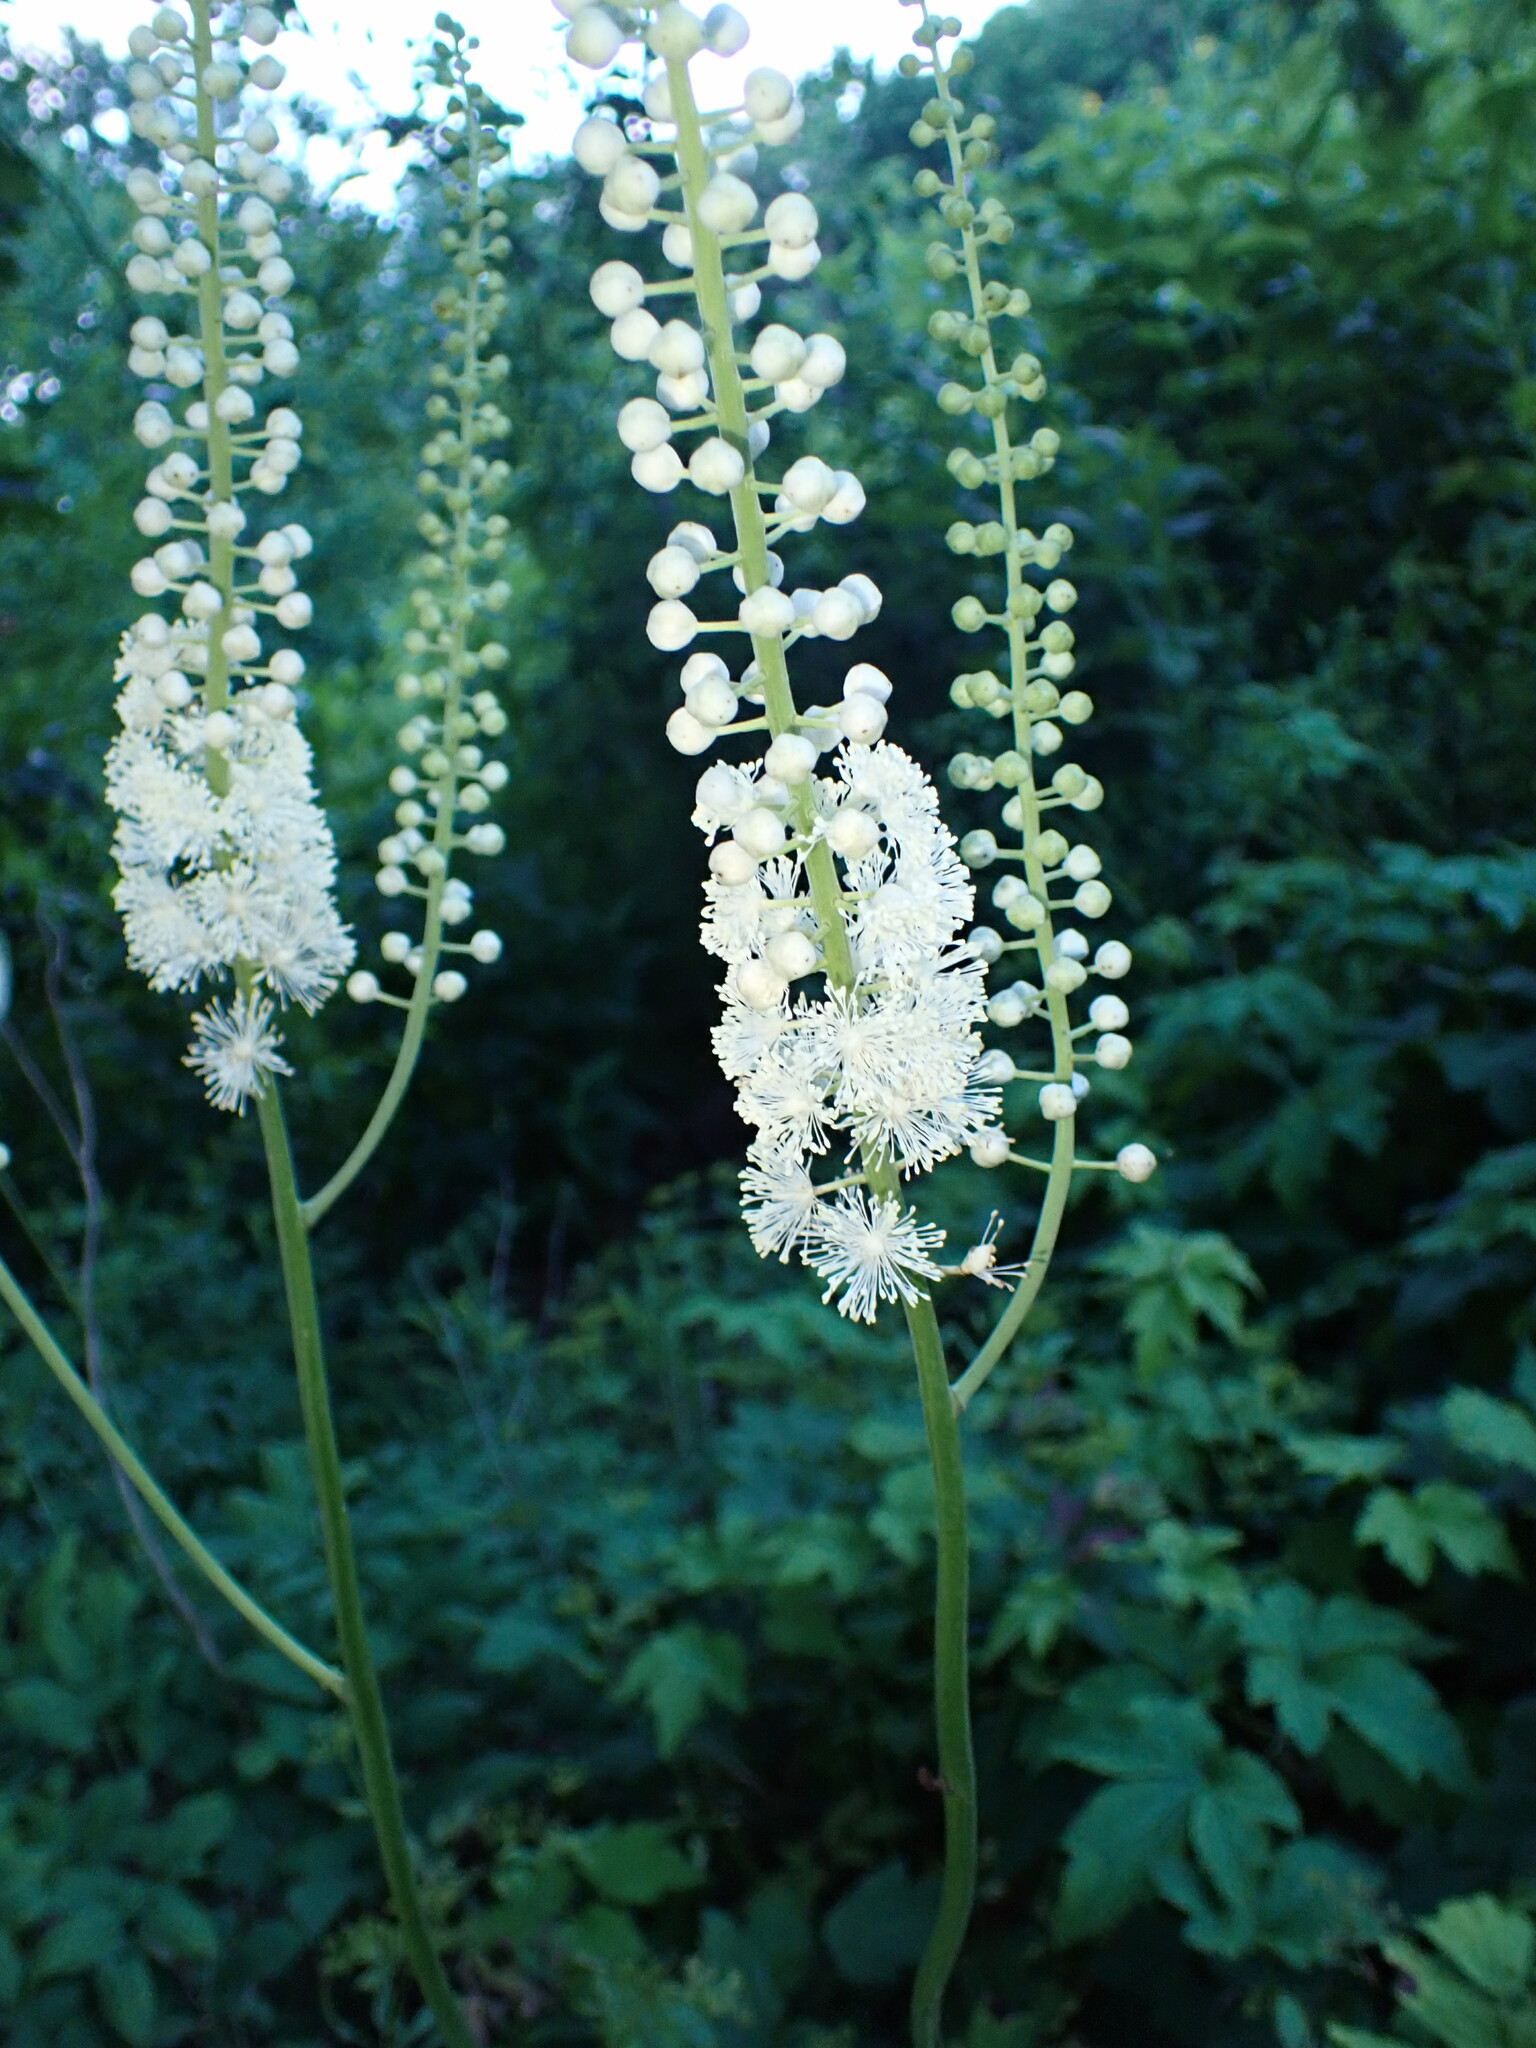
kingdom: Plantae
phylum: Tracheophyta
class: Magnoliopsida
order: Ranunculales
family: Ranunculaceae
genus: Actaea
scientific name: Actaea racemosa
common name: Black cohosh
